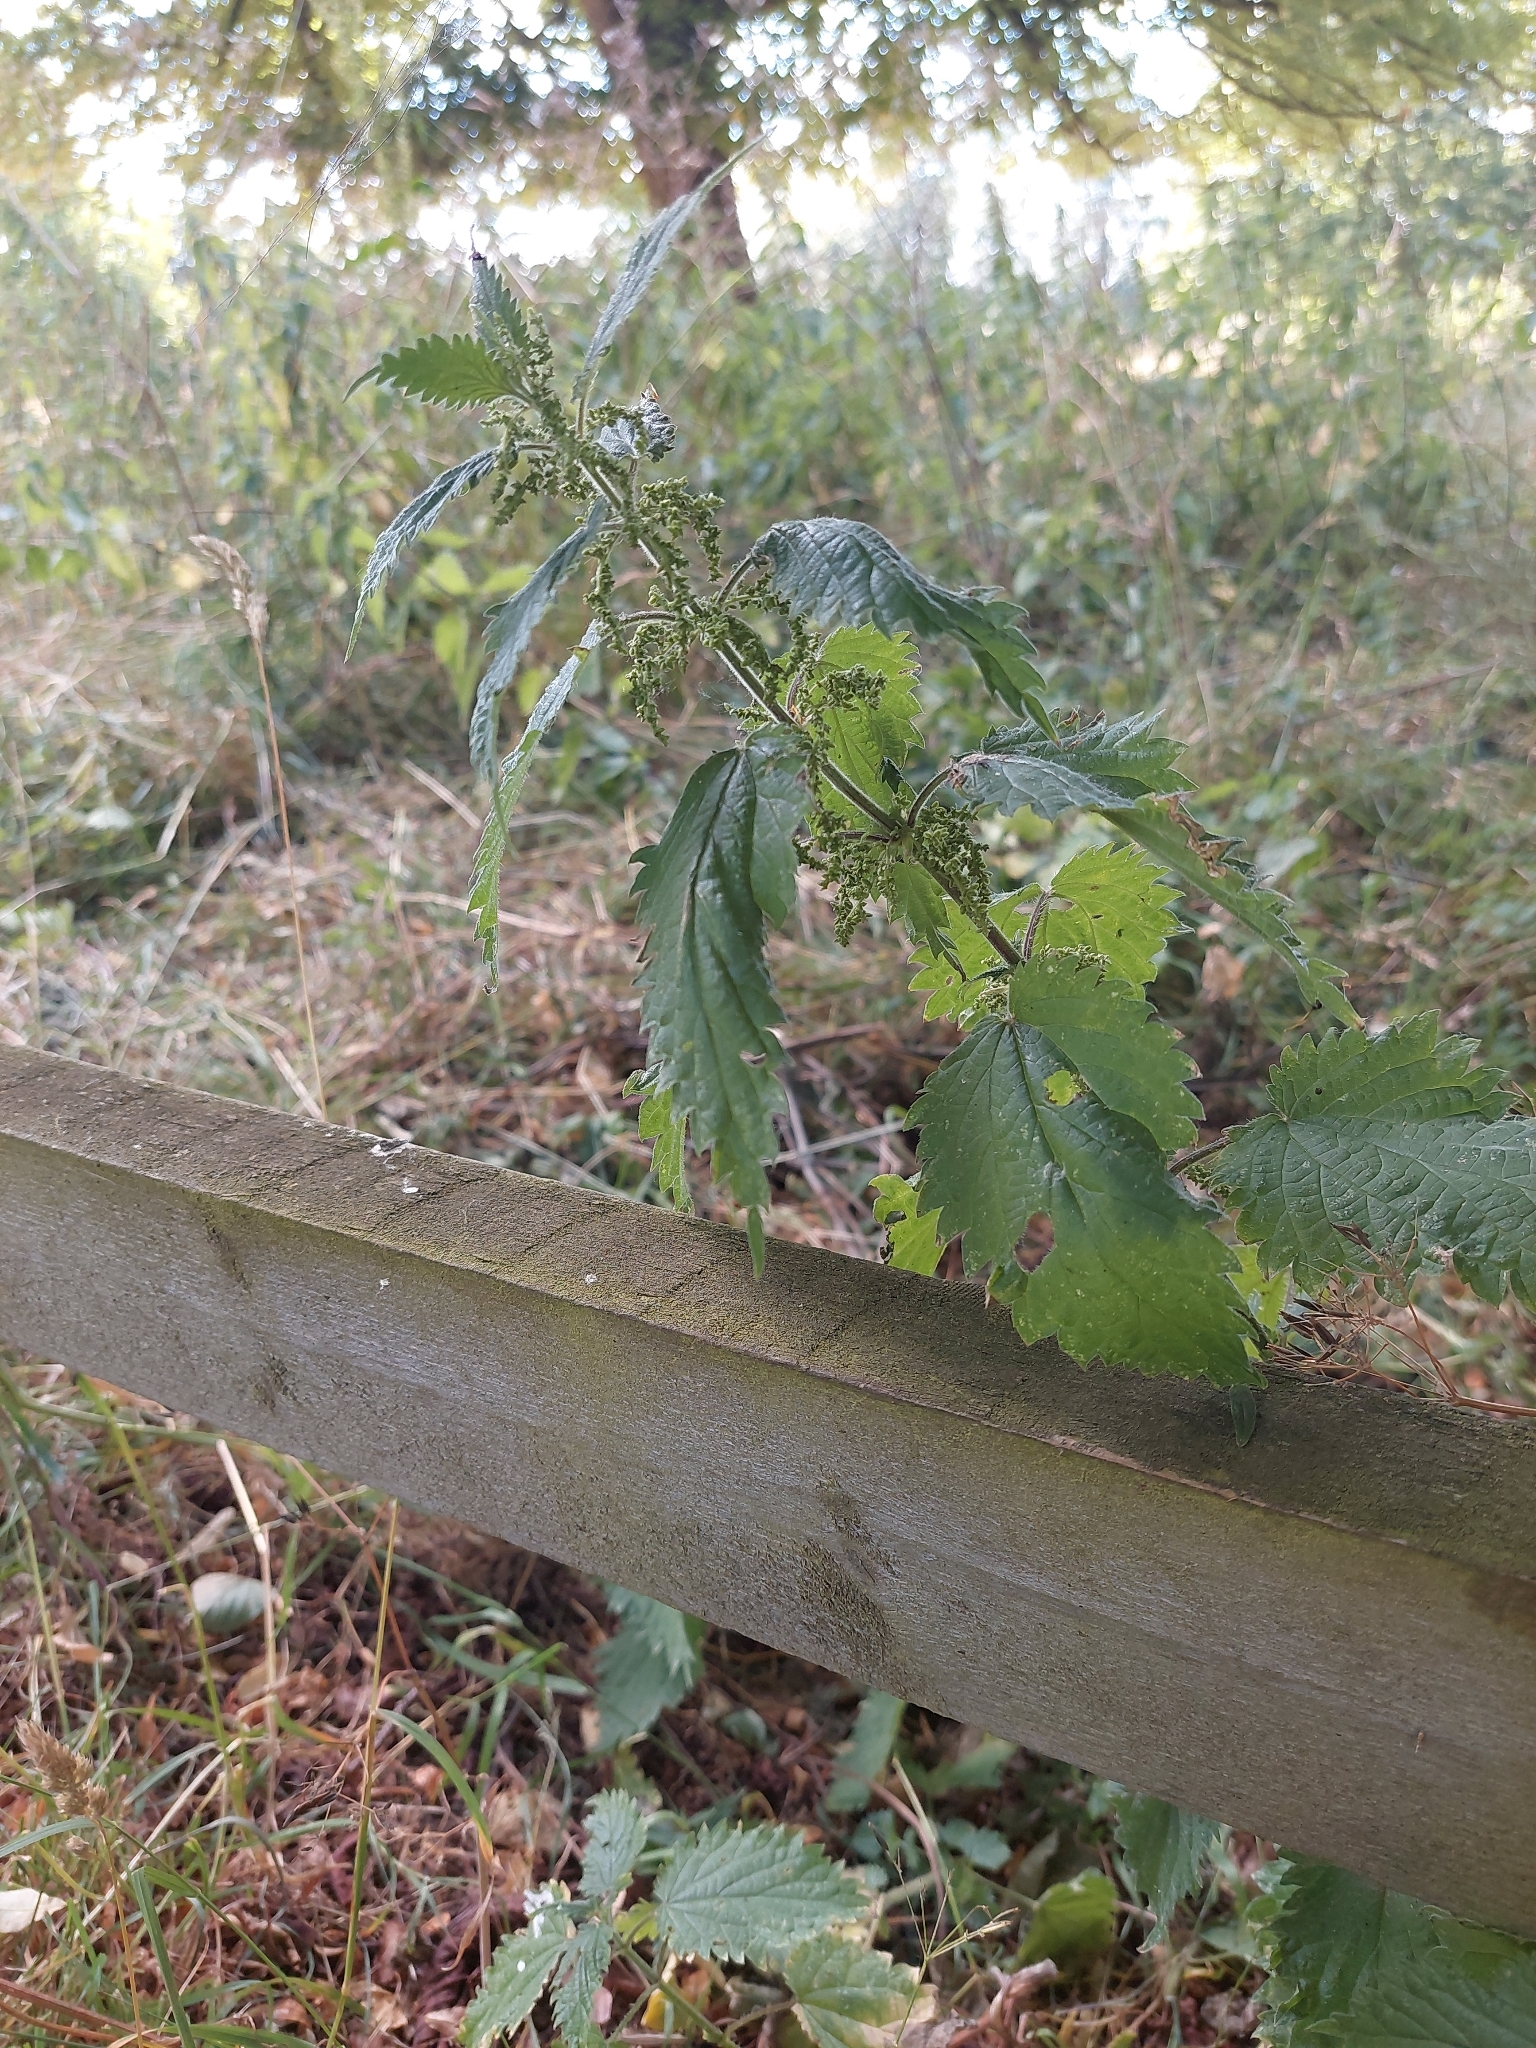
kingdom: Plantae
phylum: Tracheophyta
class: Magnoliopsida
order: Rosales
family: Urticaceae
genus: Urtica
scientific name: Urtica dioica
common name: Common nettle
